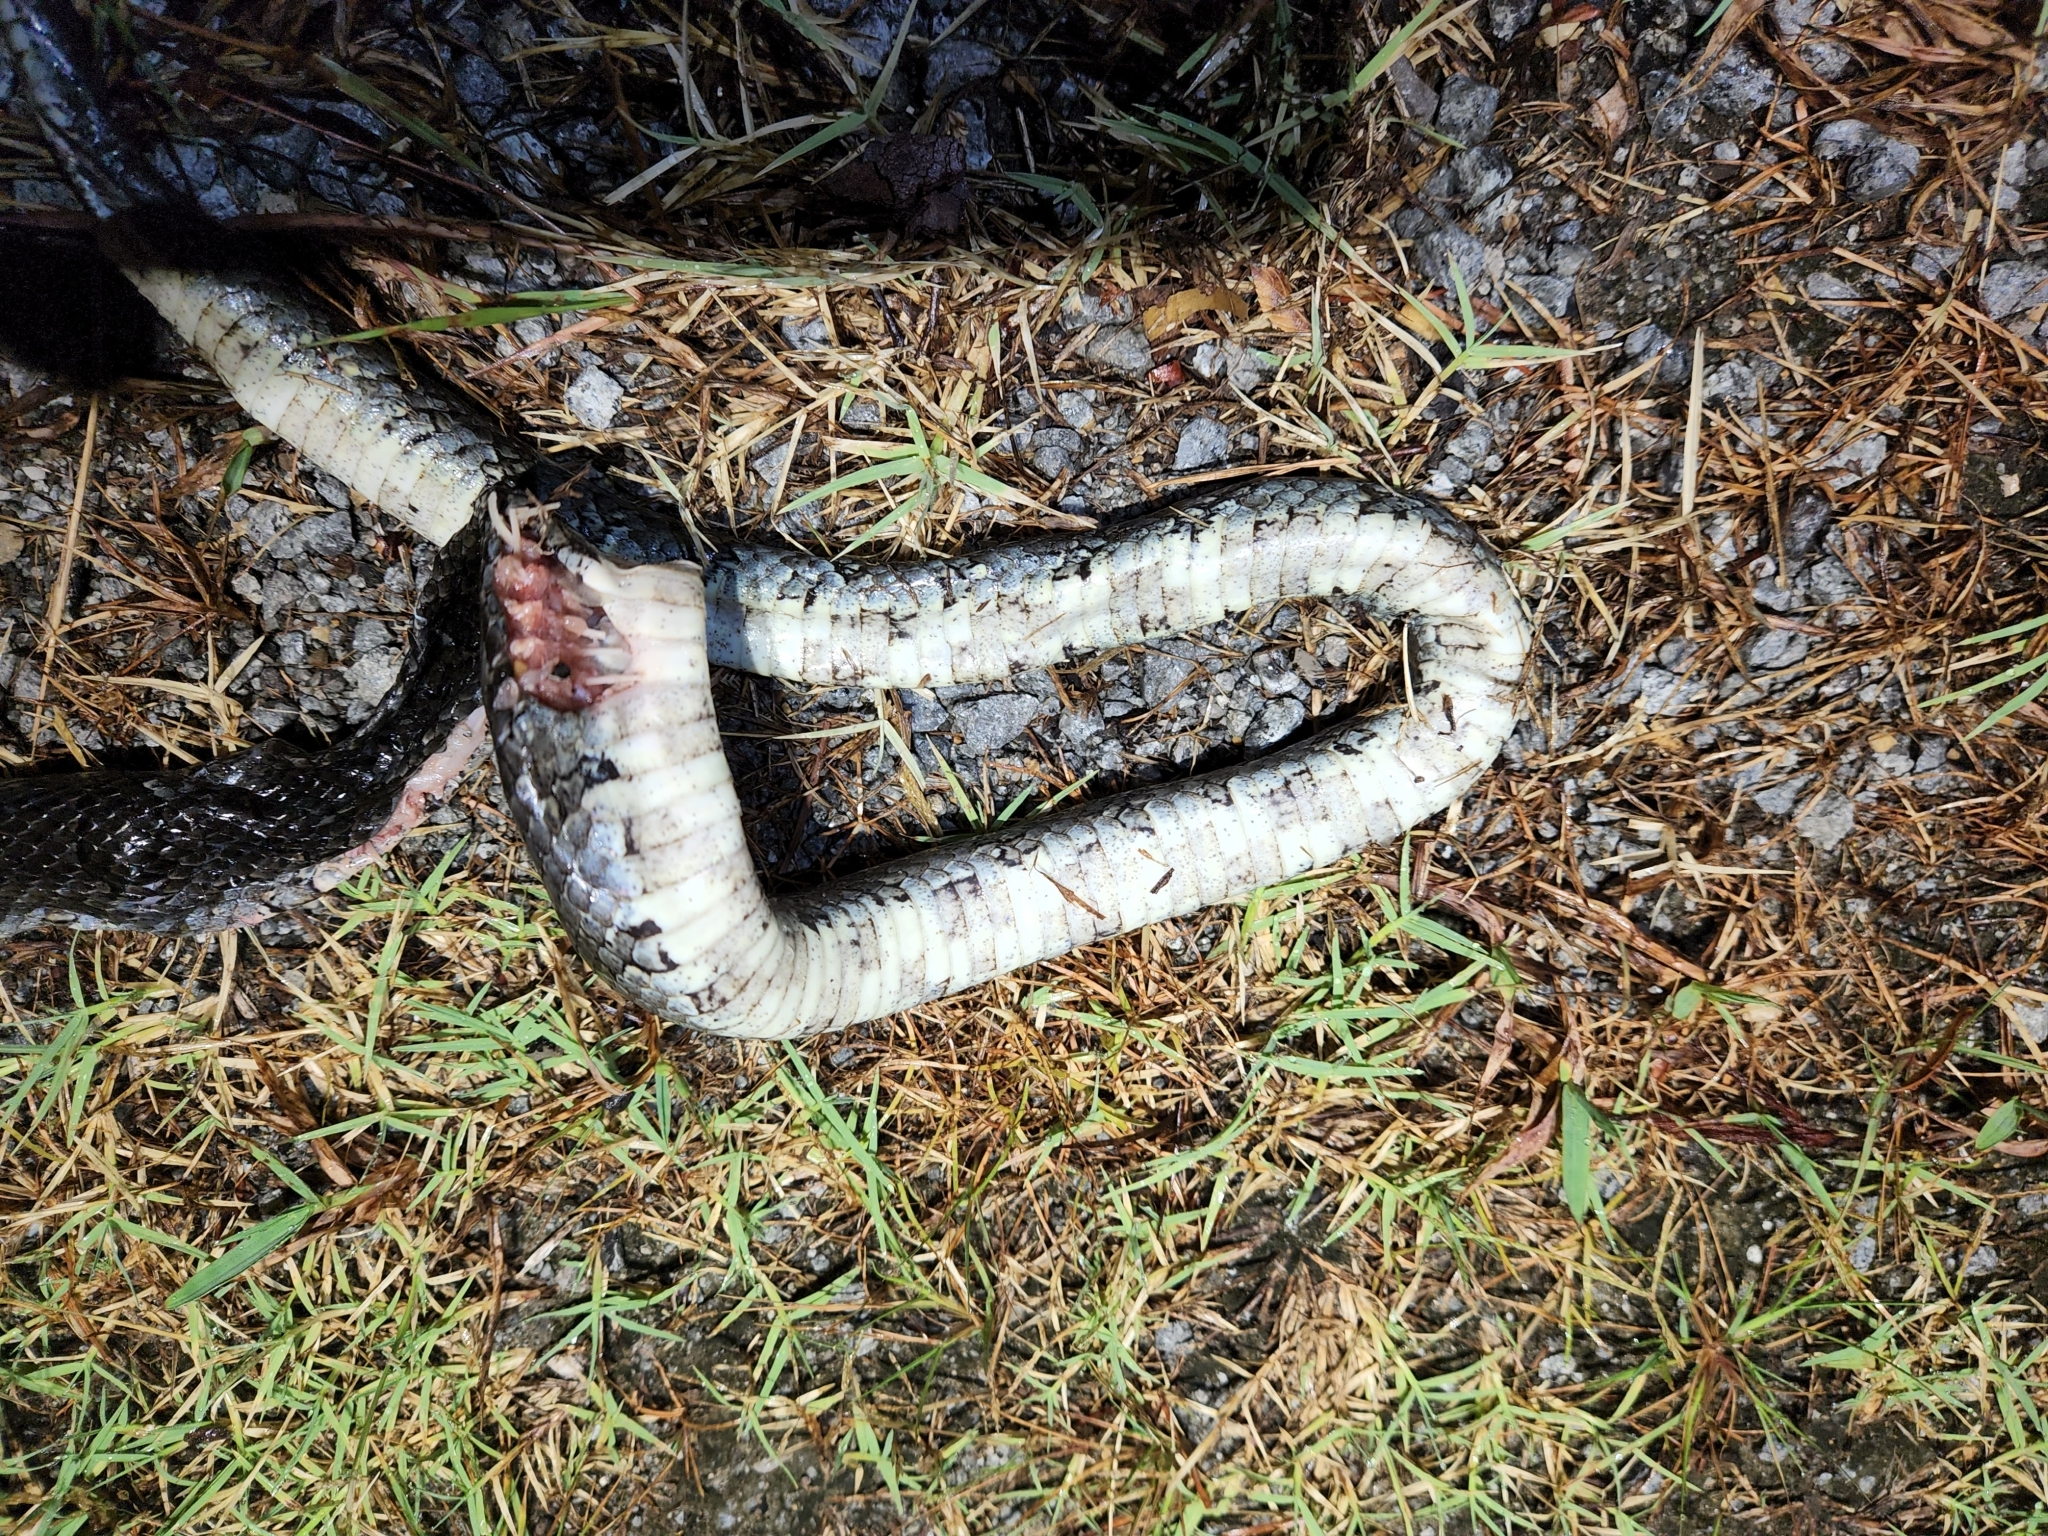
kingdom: Animalia
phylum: Chordata
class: Squamata
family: Colubridae
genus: Lampropeltis
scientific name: Lampropeltis calligaster
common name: Prairie kingsnake
